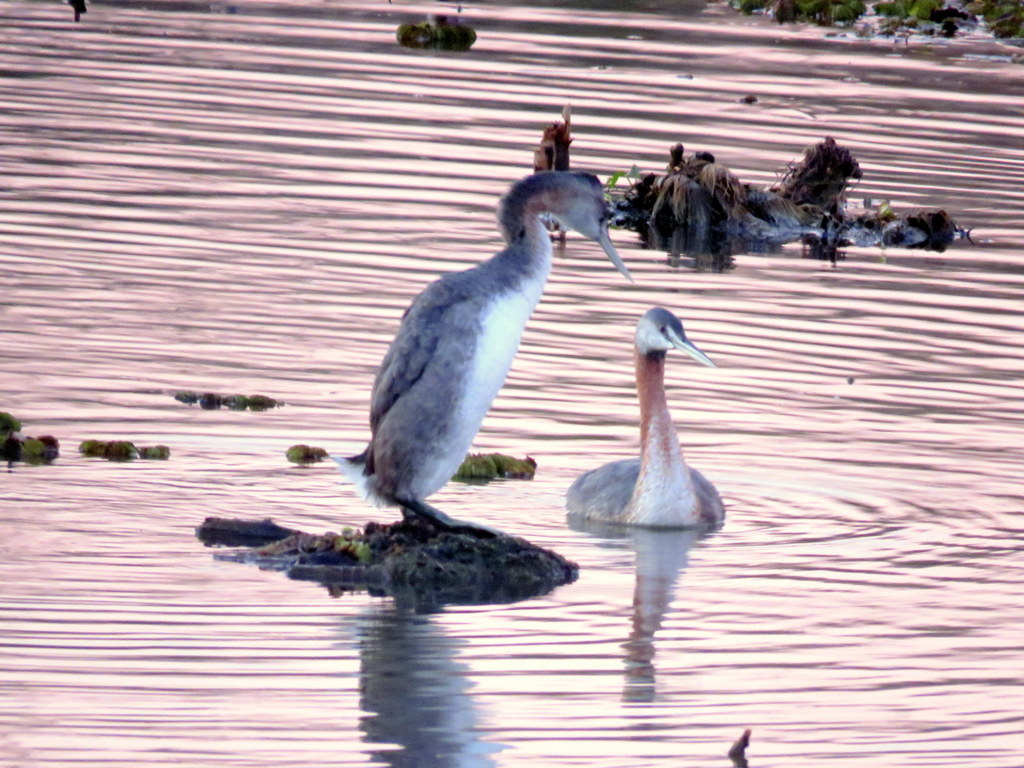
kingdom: Animalia
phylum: Chordata
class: Aves
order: Podicipediformes
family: Podicipedidae
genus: Podiceps
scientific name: Podiceps major
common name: Great grebe
